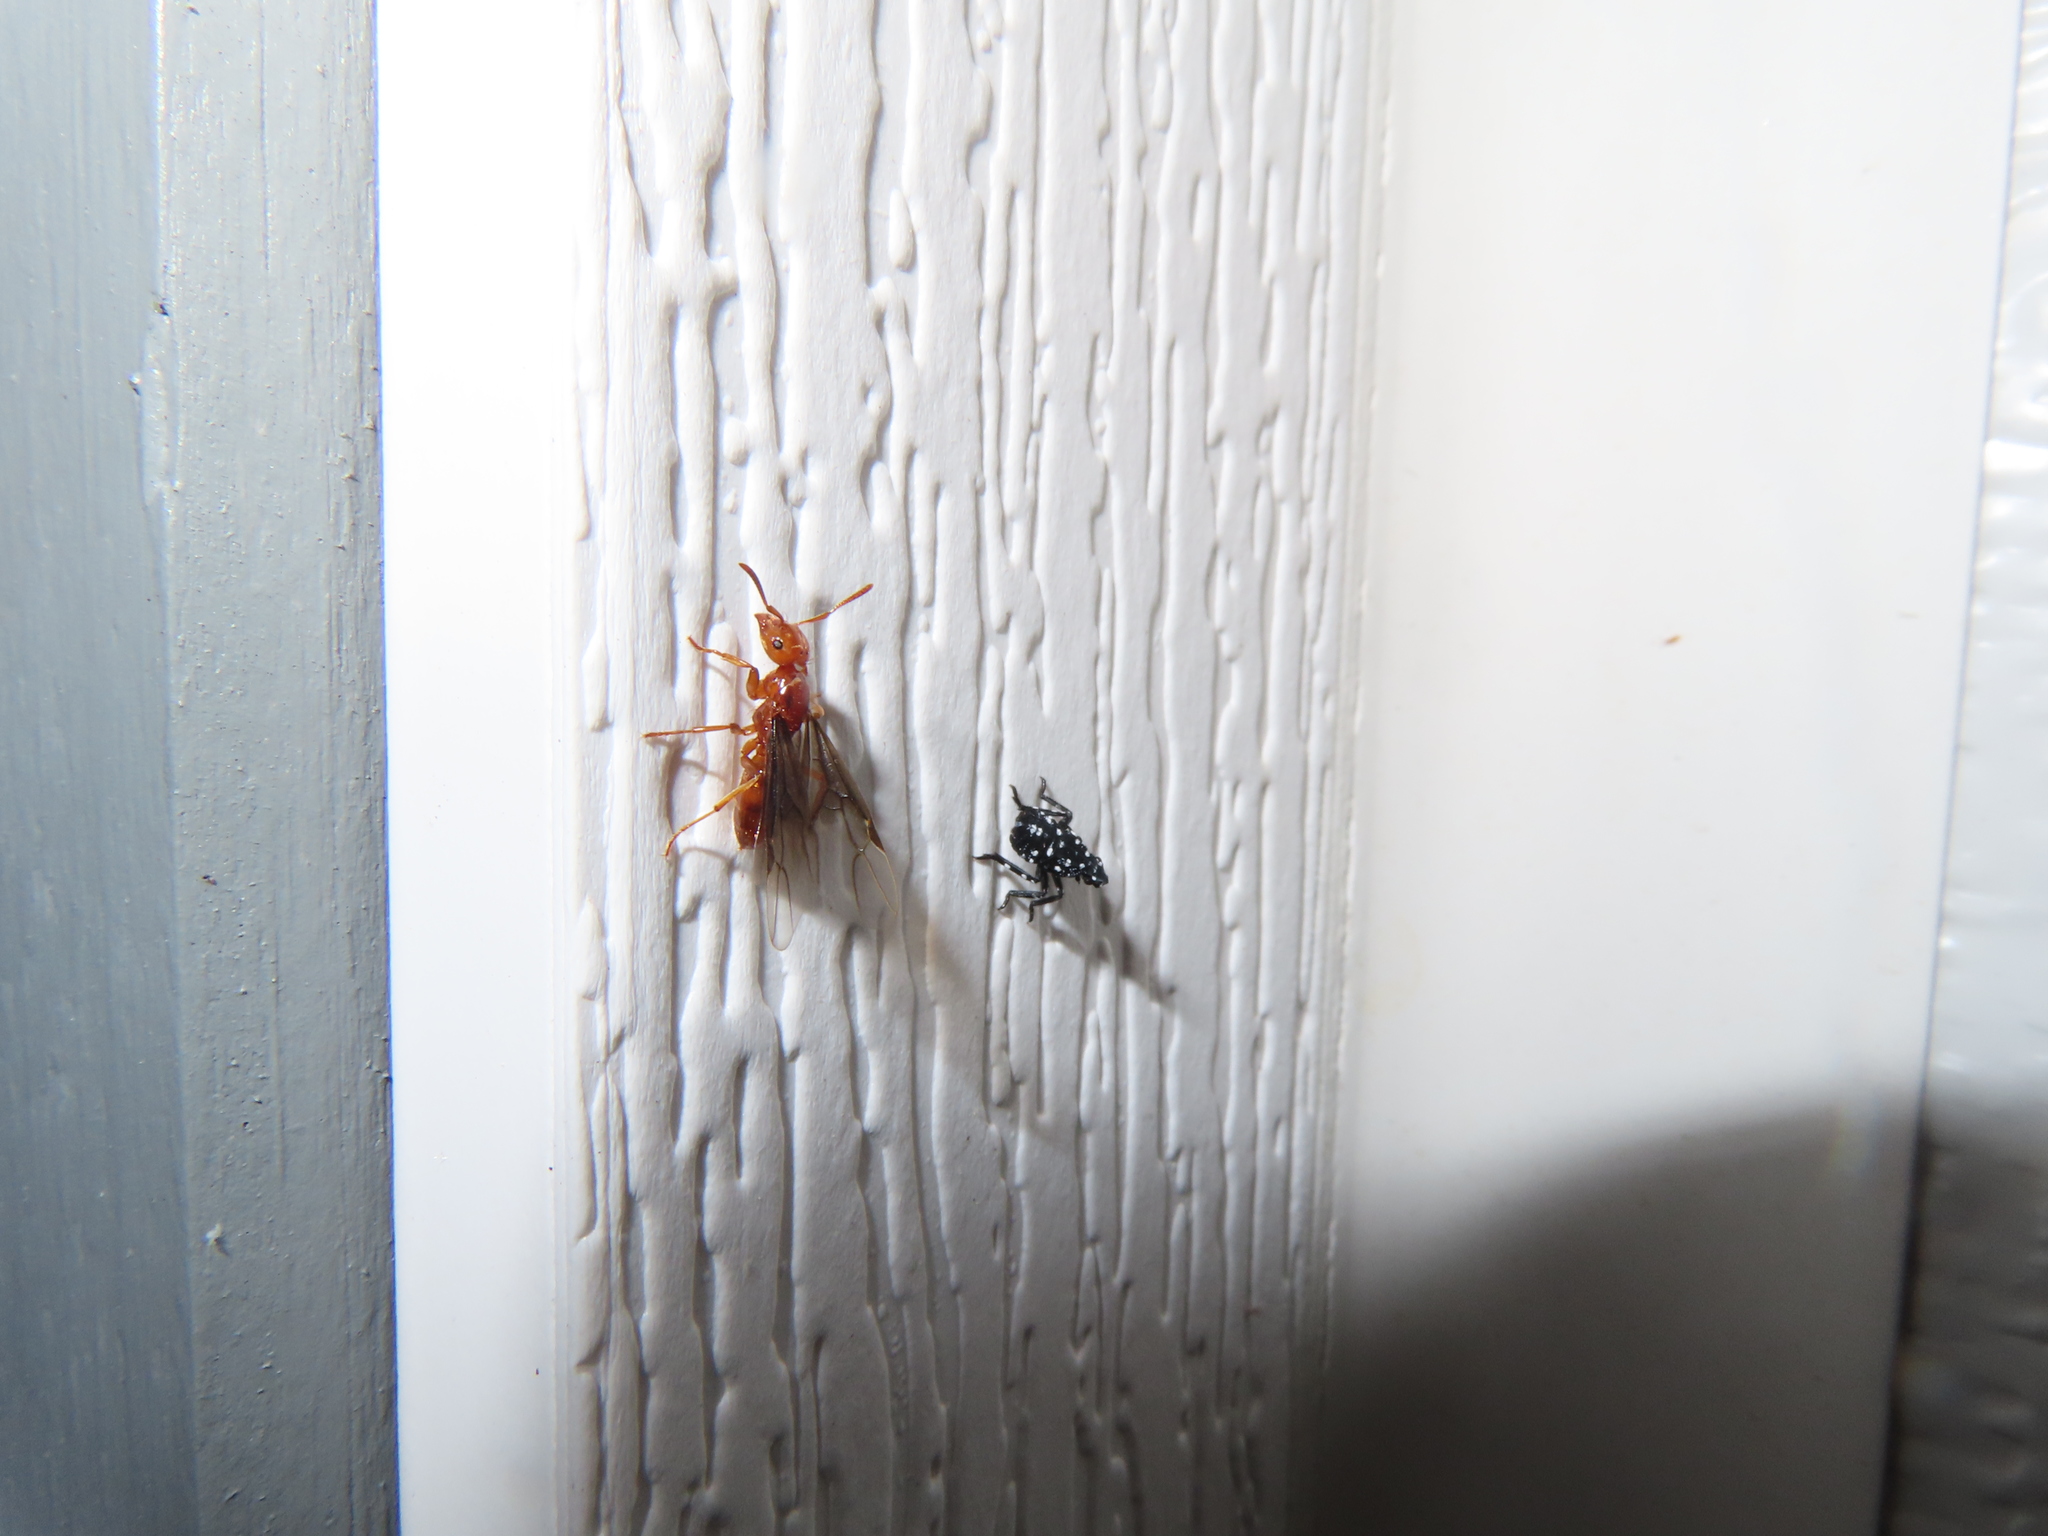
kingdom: Animalia
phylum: Arthropoda
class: Insecta
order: Hemiptera
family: Fulgoridae
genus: Lycorma
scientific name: Lycorma delicatula
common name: Spotted lanternfly
